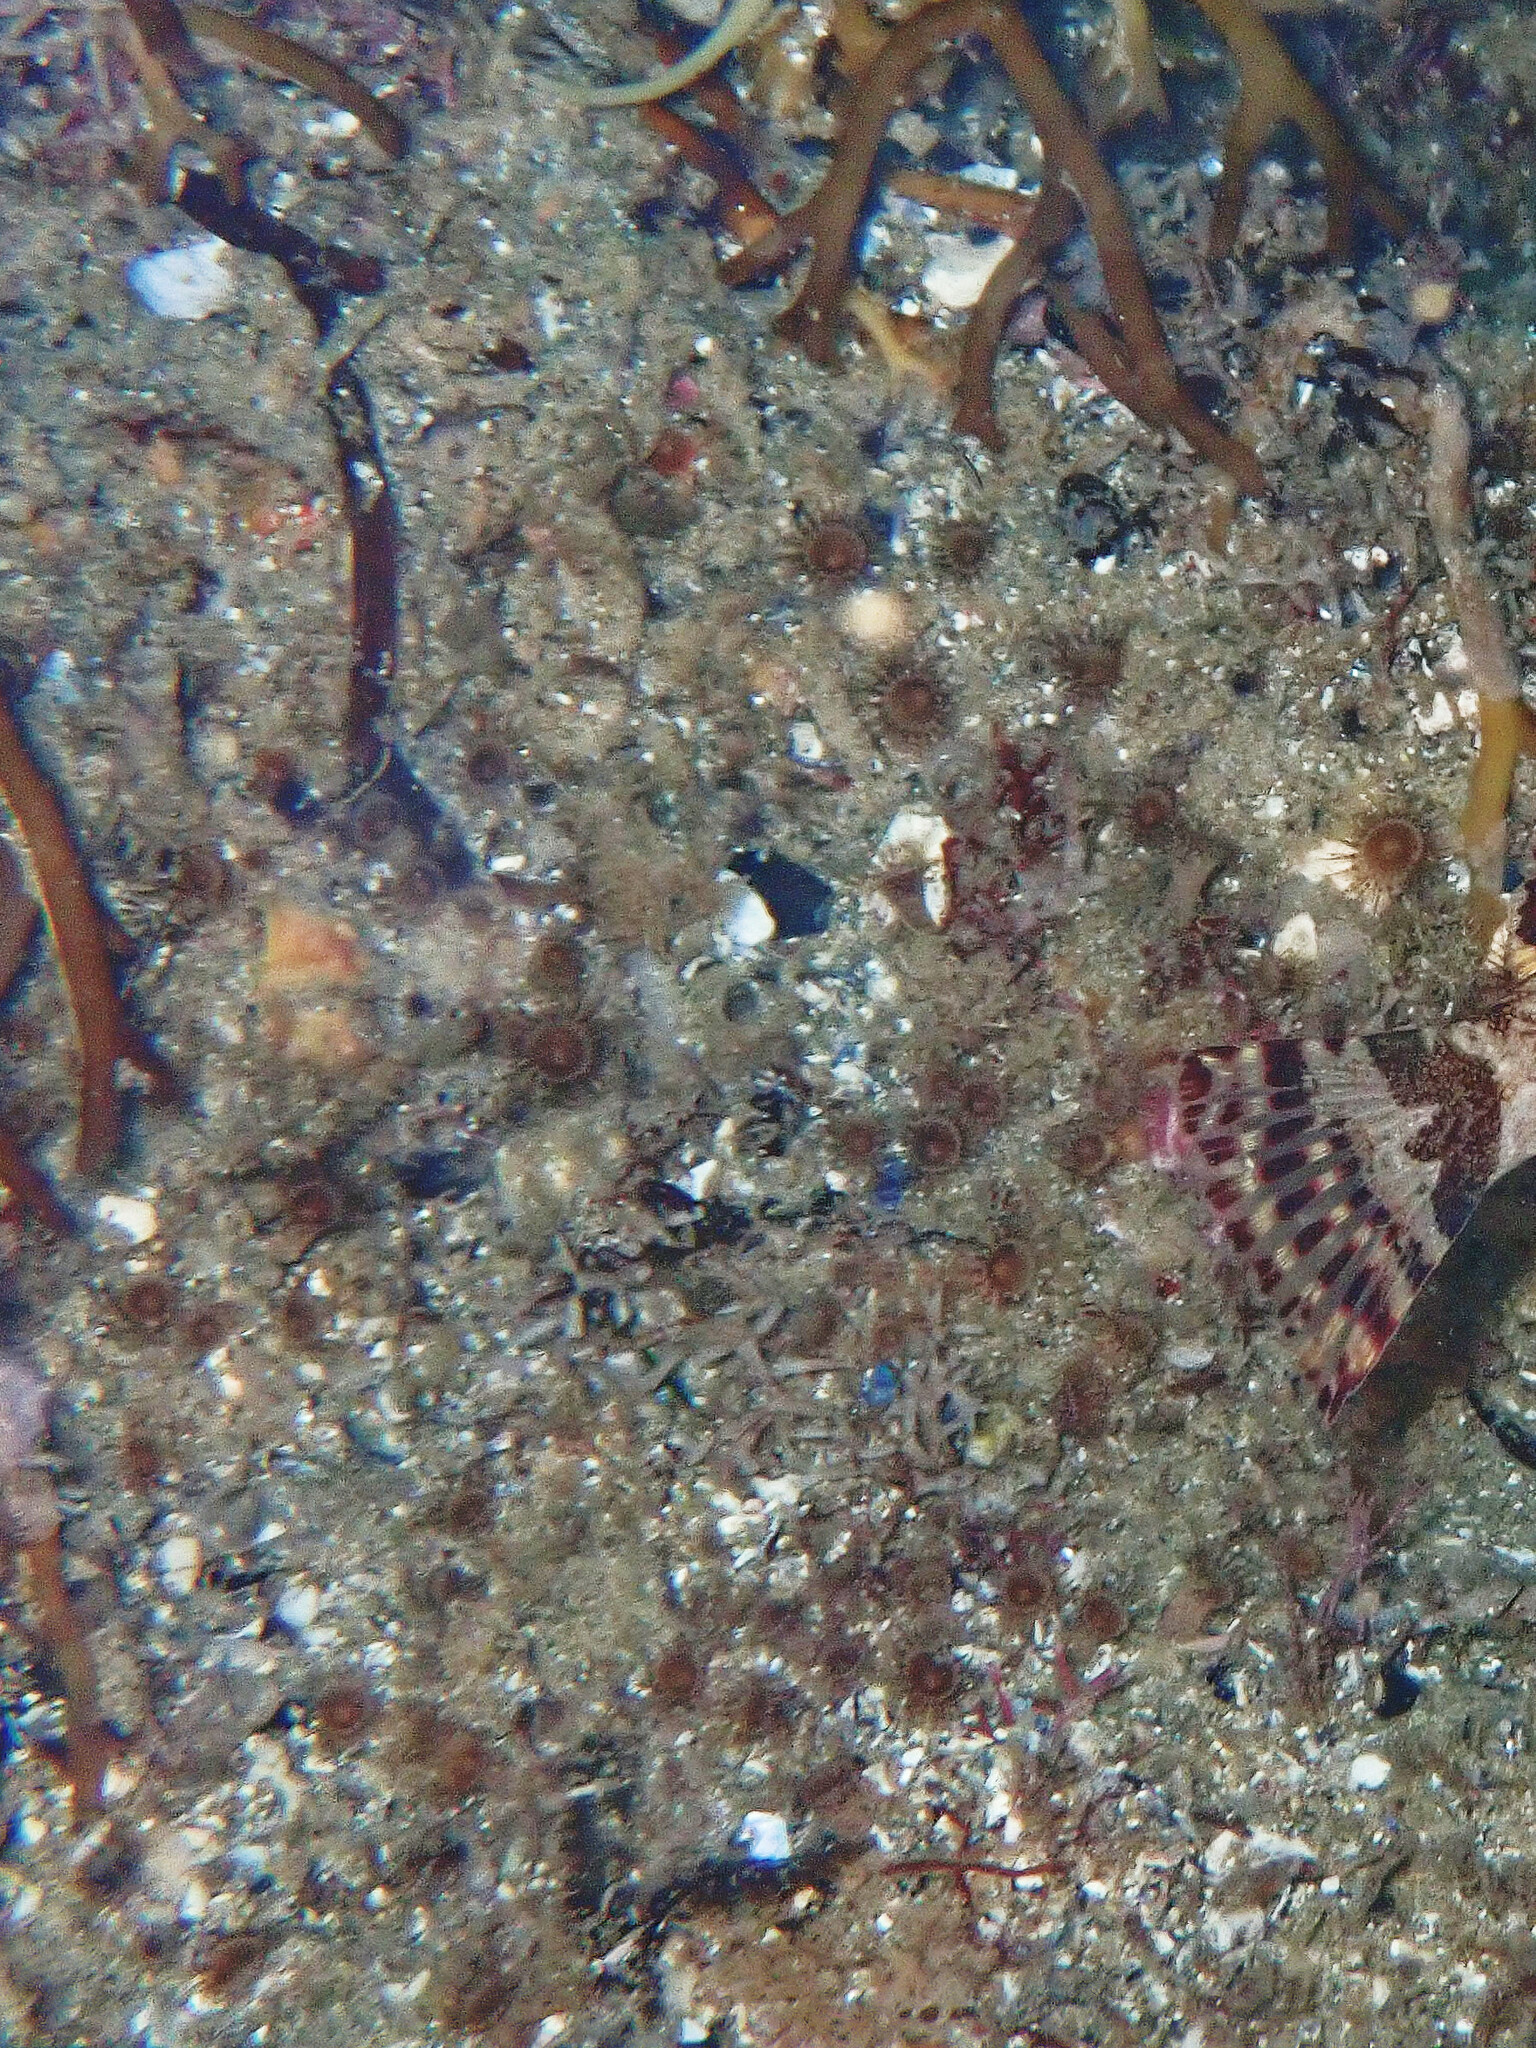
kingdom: Animalia
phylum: Cnidaria
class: Anthozoa
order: Zoantharia
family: Epizoanthidae
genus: Epizoanthus
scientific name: Epizoanthus leptoderma
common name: Elongate zoanthid
